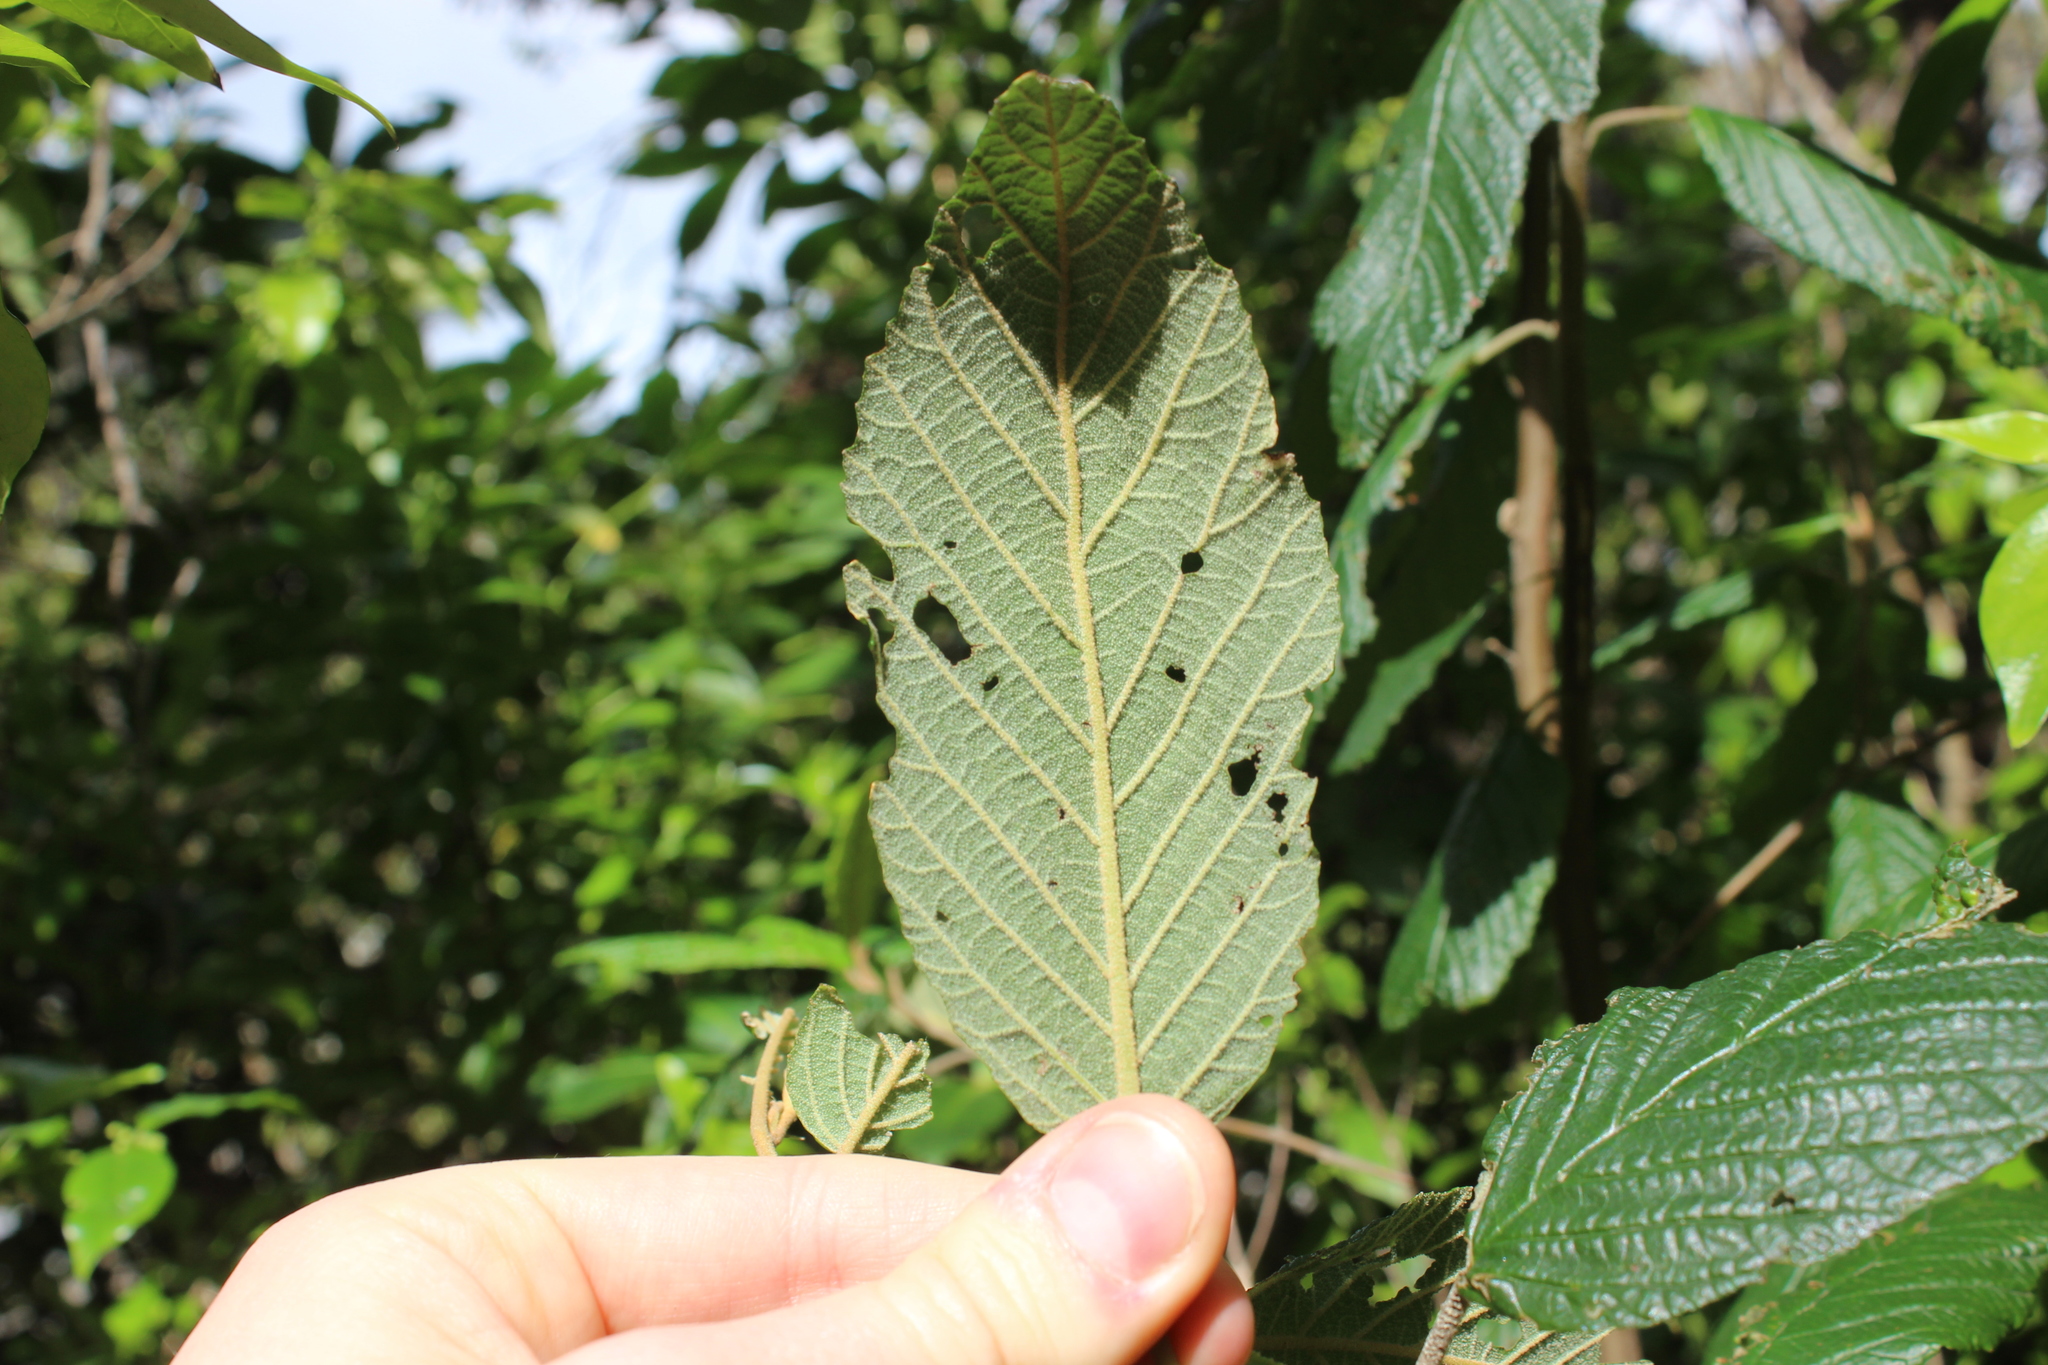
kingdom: Plantae
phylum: Tracheophyta
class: Magnoliopsida
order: Rosales
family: Rhamnaceae
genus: Pomaderris
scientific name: Pomaderris aspera
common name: Hazel pomaderris
